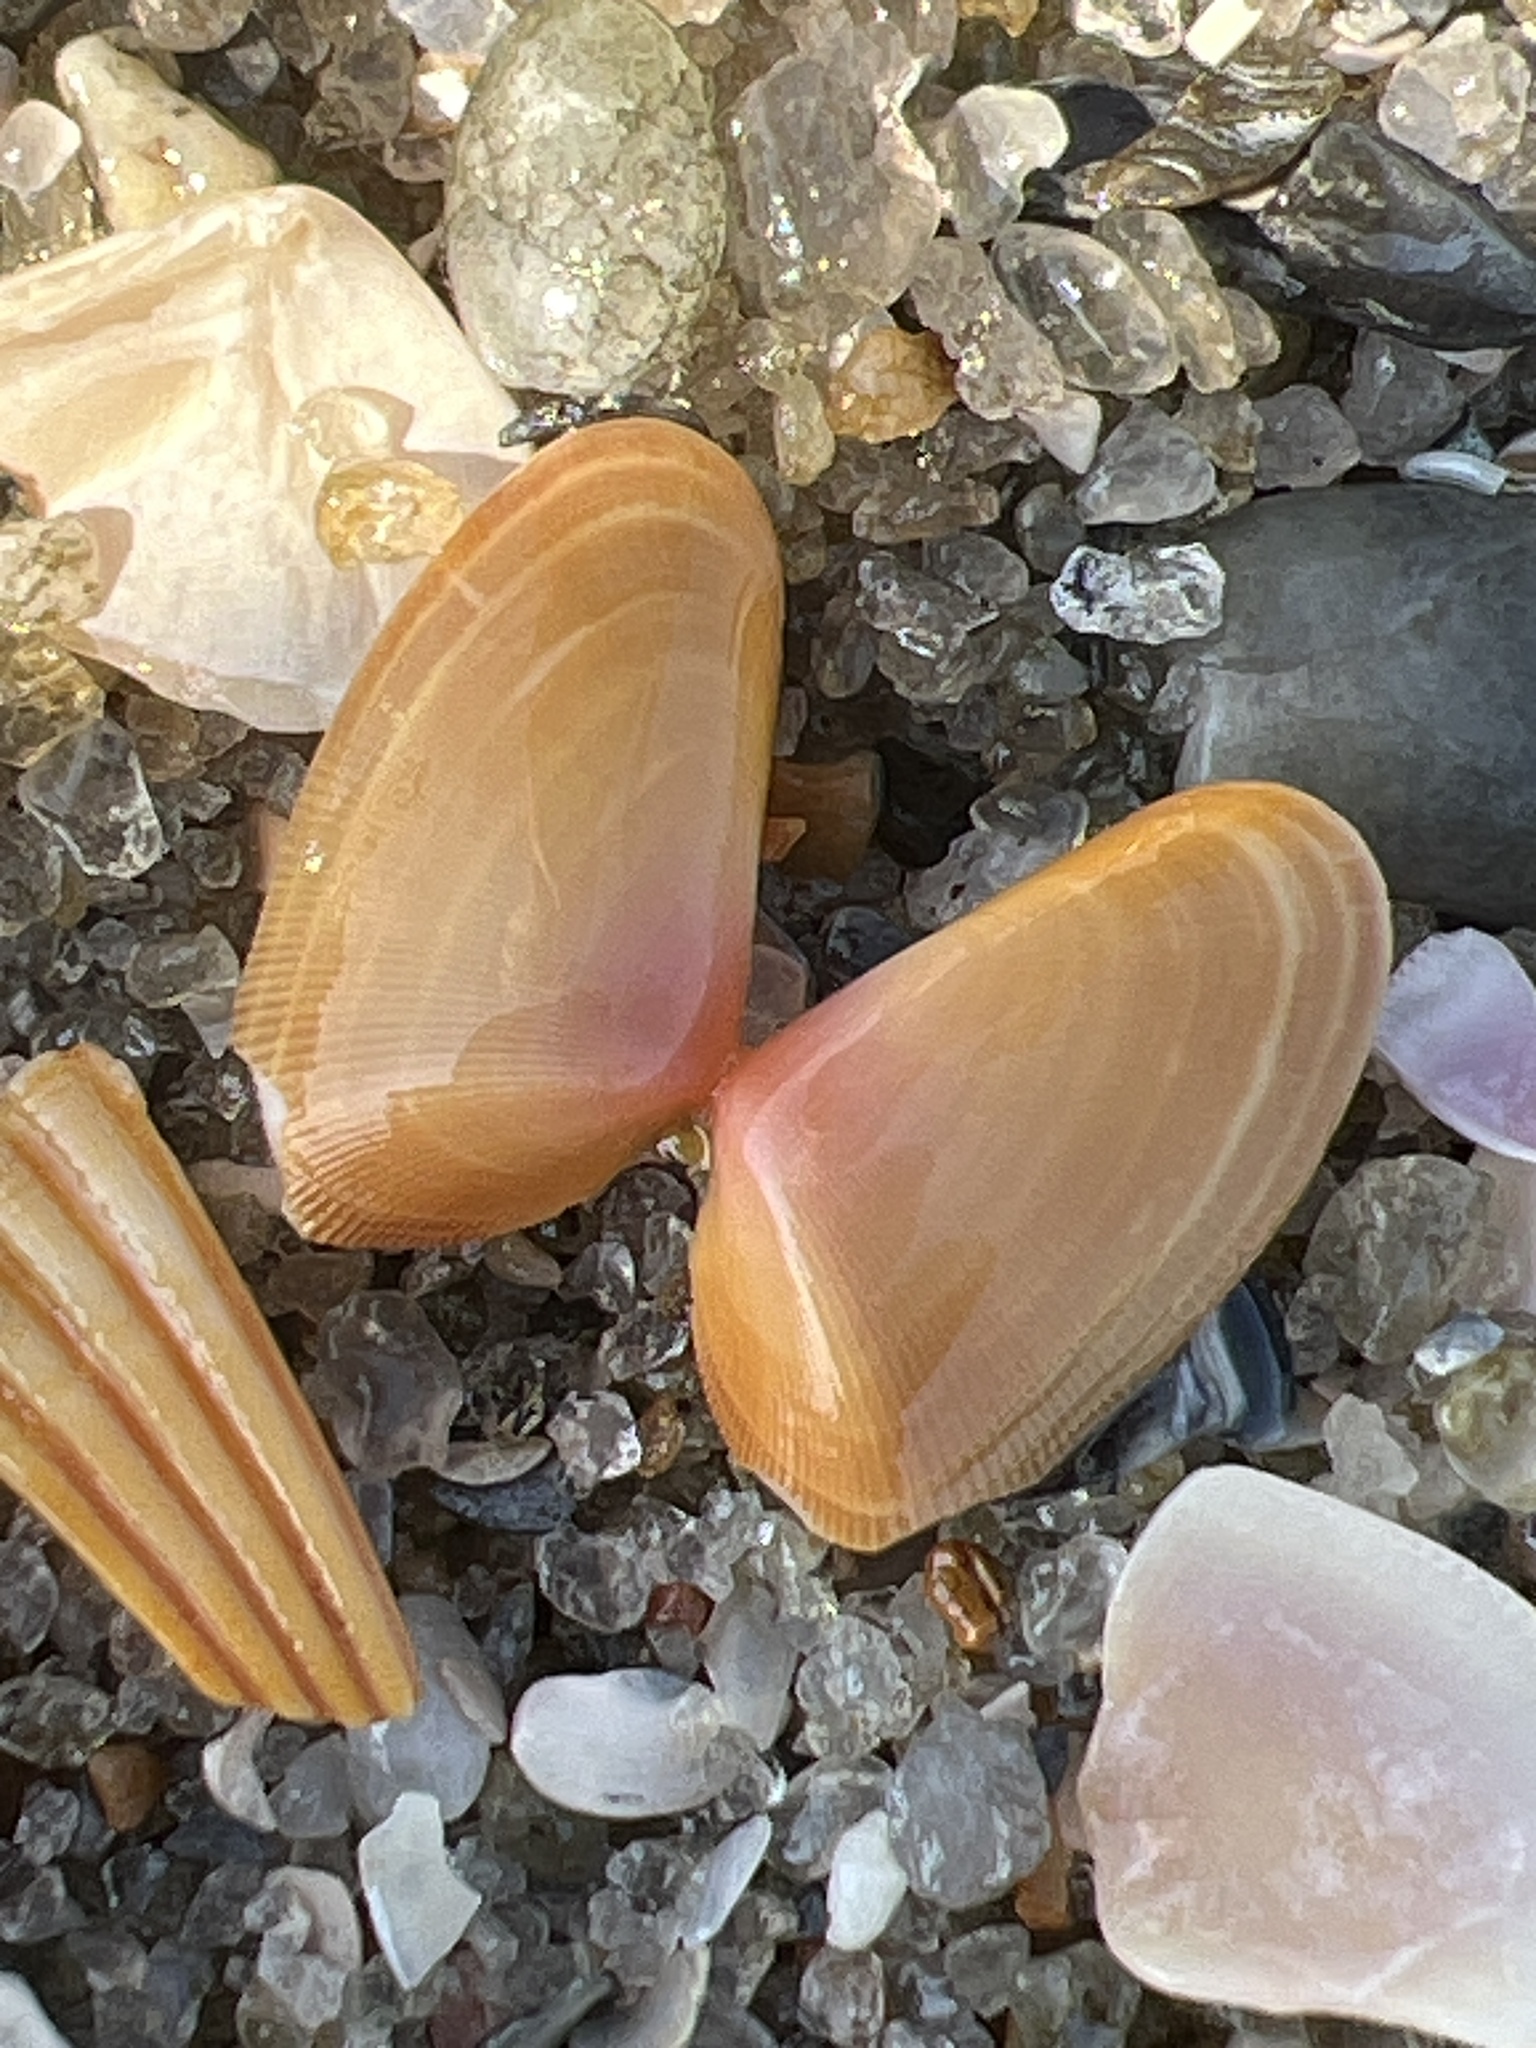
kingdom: Animalia
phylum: Mollusca
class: Bivalvia
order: Cardiida
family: Donacidae
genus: Donax
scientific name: Donax variabilis
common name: Butterfly shell
